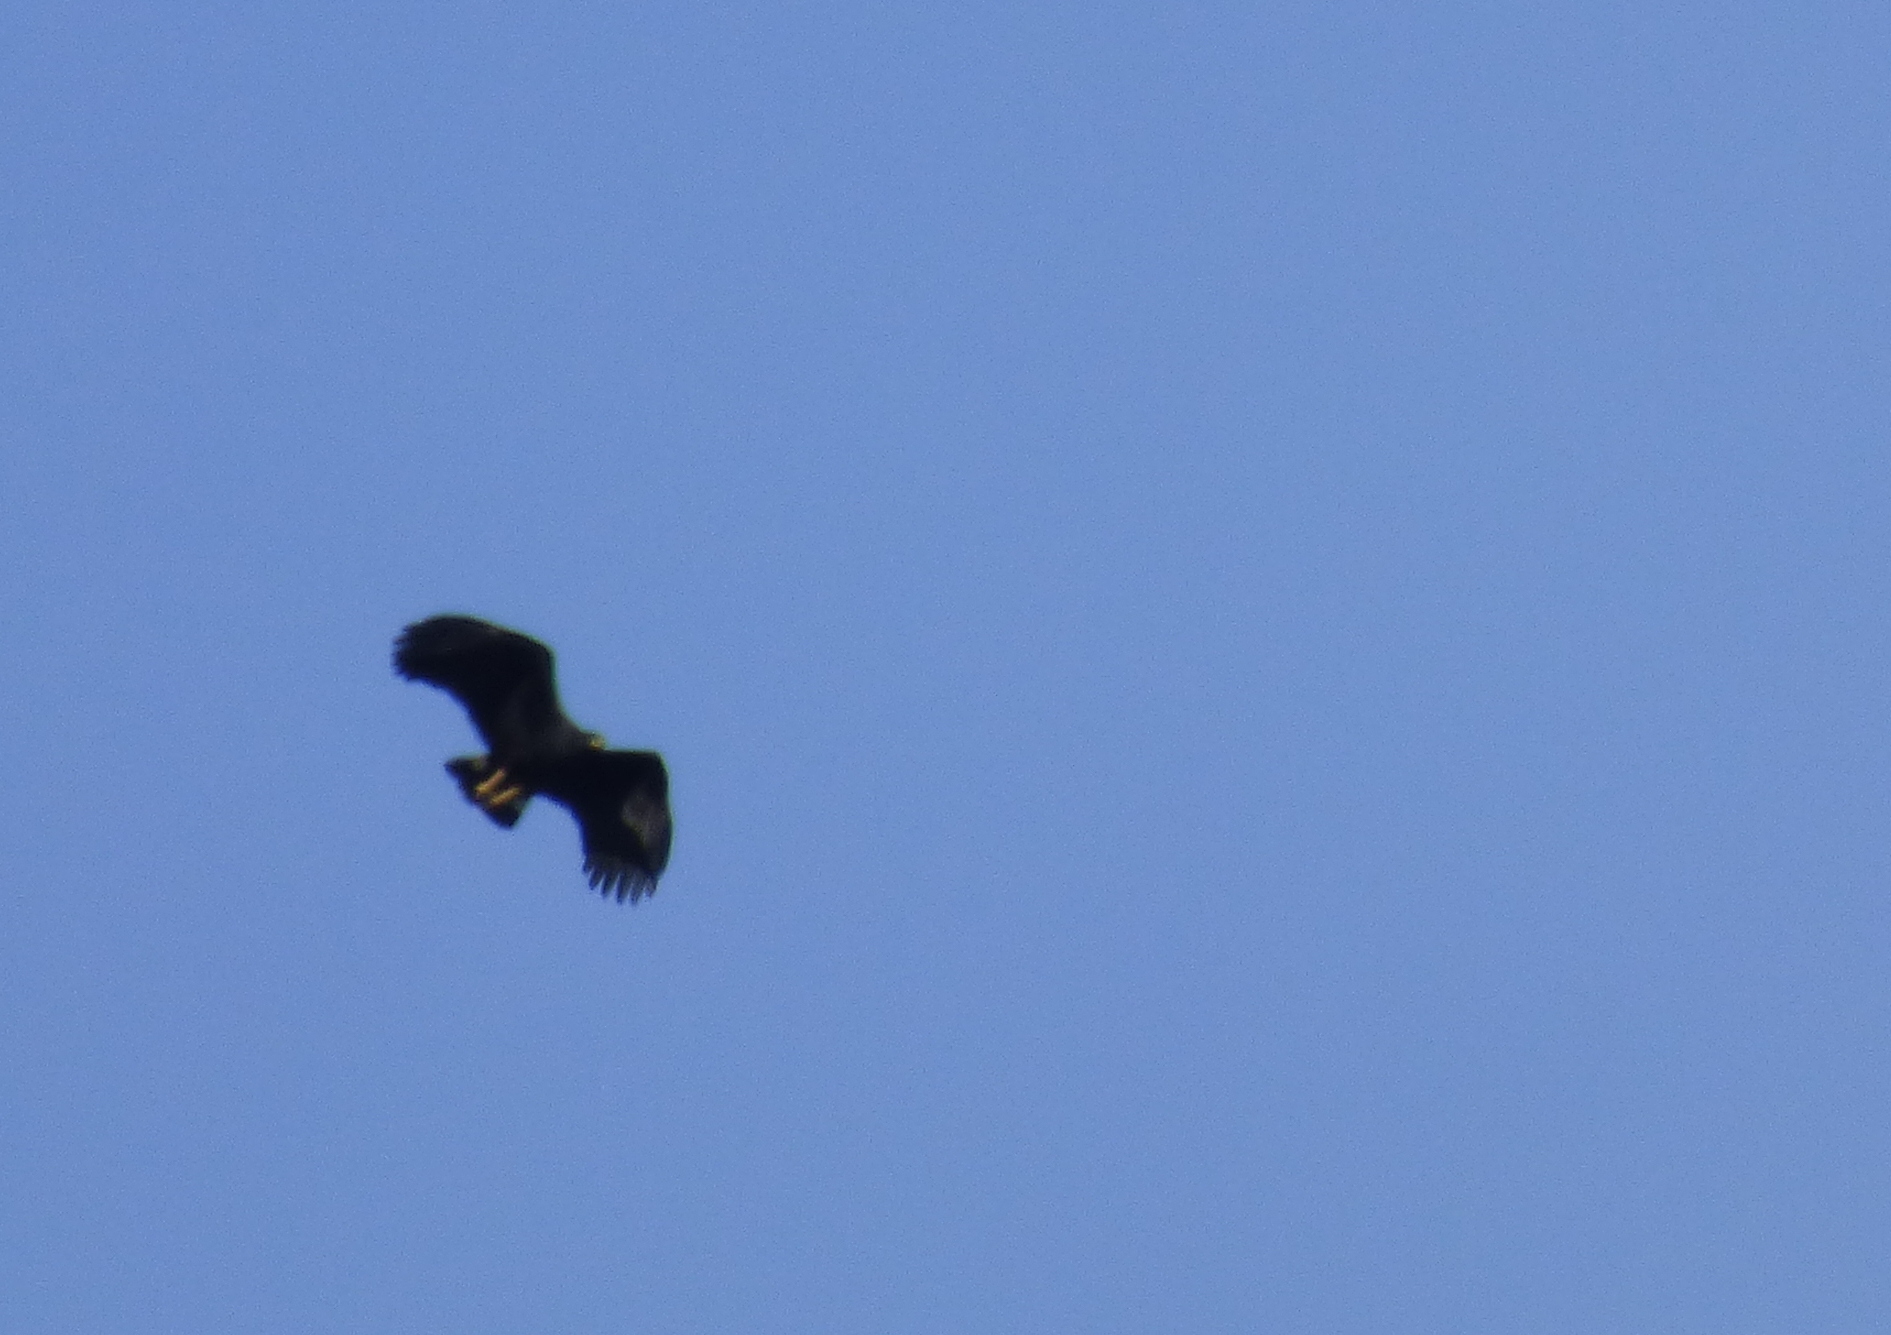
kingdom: Animalia
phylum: Chordata
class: Aves
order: Accipitriformes
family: Accipitridae
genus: Buteogallus
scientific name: Buteogallus urubitinga
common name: Great black hawk
